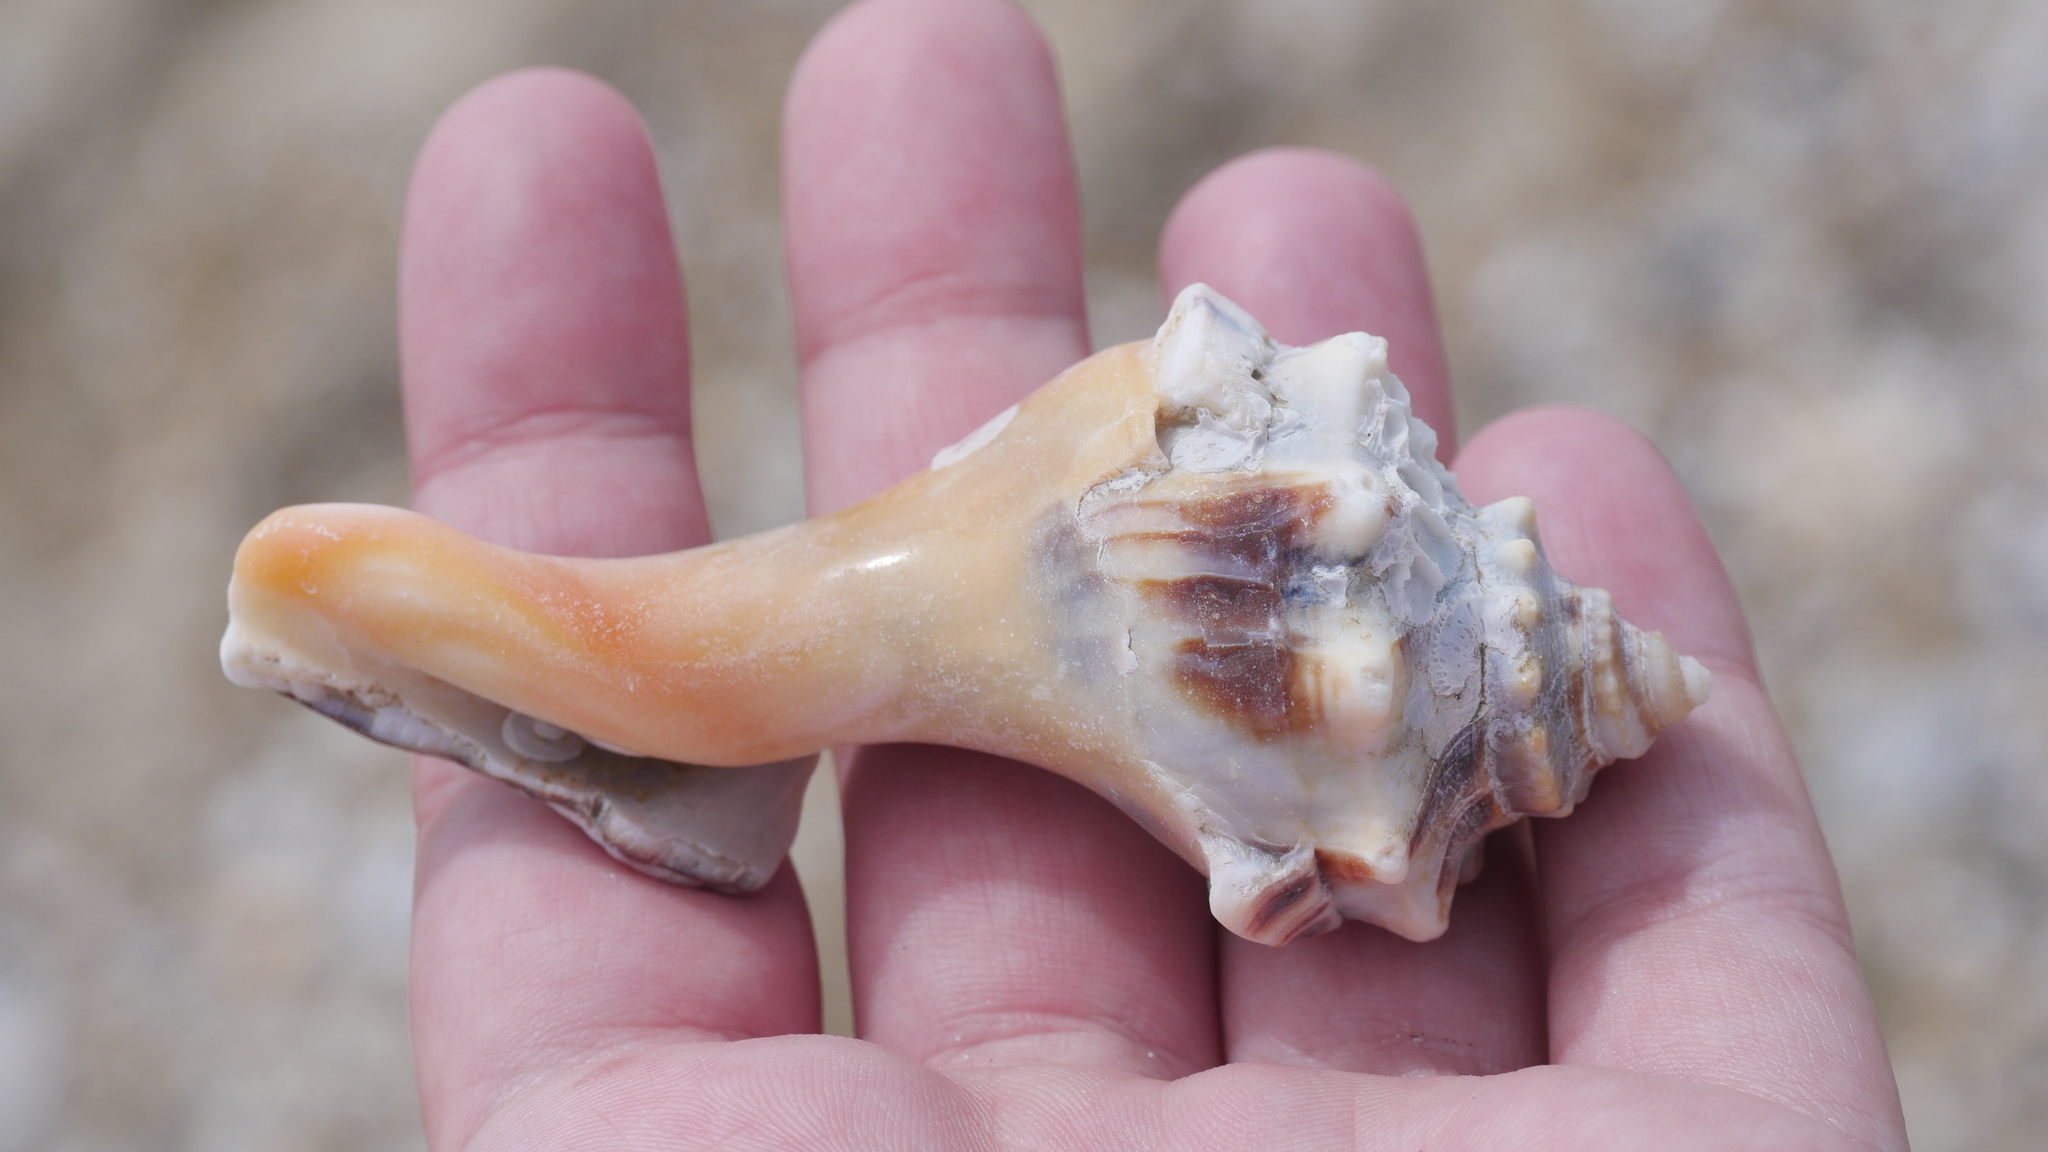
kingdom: Animalia
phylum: Mollusca
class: Gastropoda
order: Neogastropoda
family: Busyconidae
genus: Busycon
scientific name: Busycon carica
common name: Knobbed whelk
